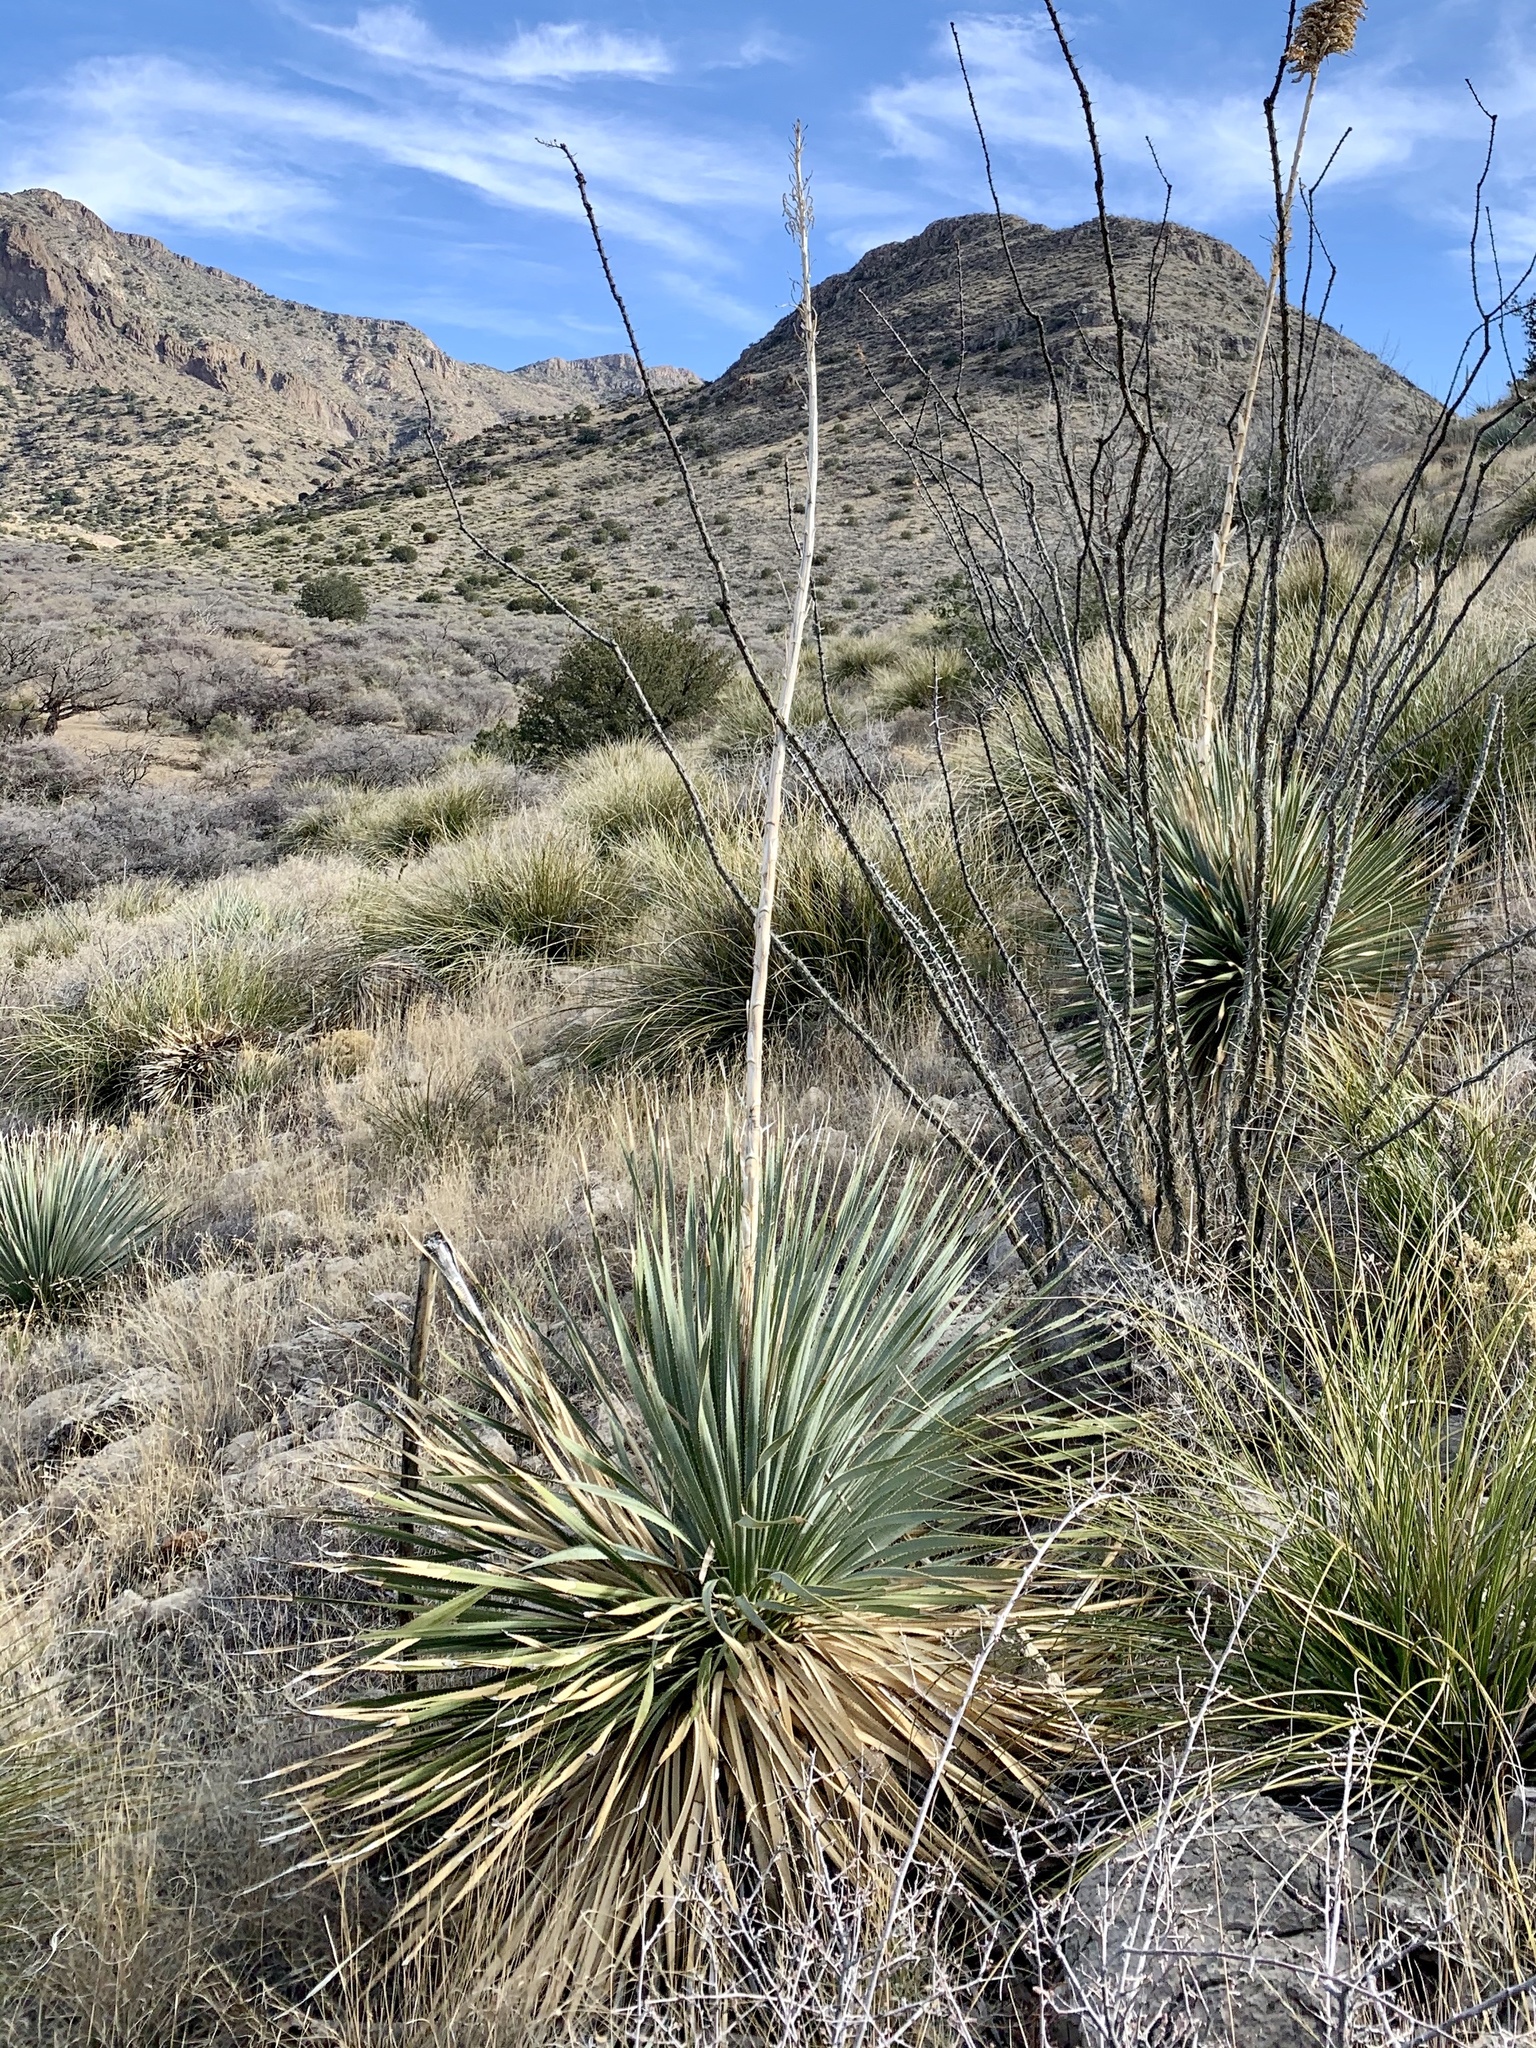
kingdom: Plantae
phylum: Tracheophyta
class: Liliopsida
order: Asparagales
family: Asparagaceae
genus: Dasylirion
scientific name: Dasylirion wheeleri
